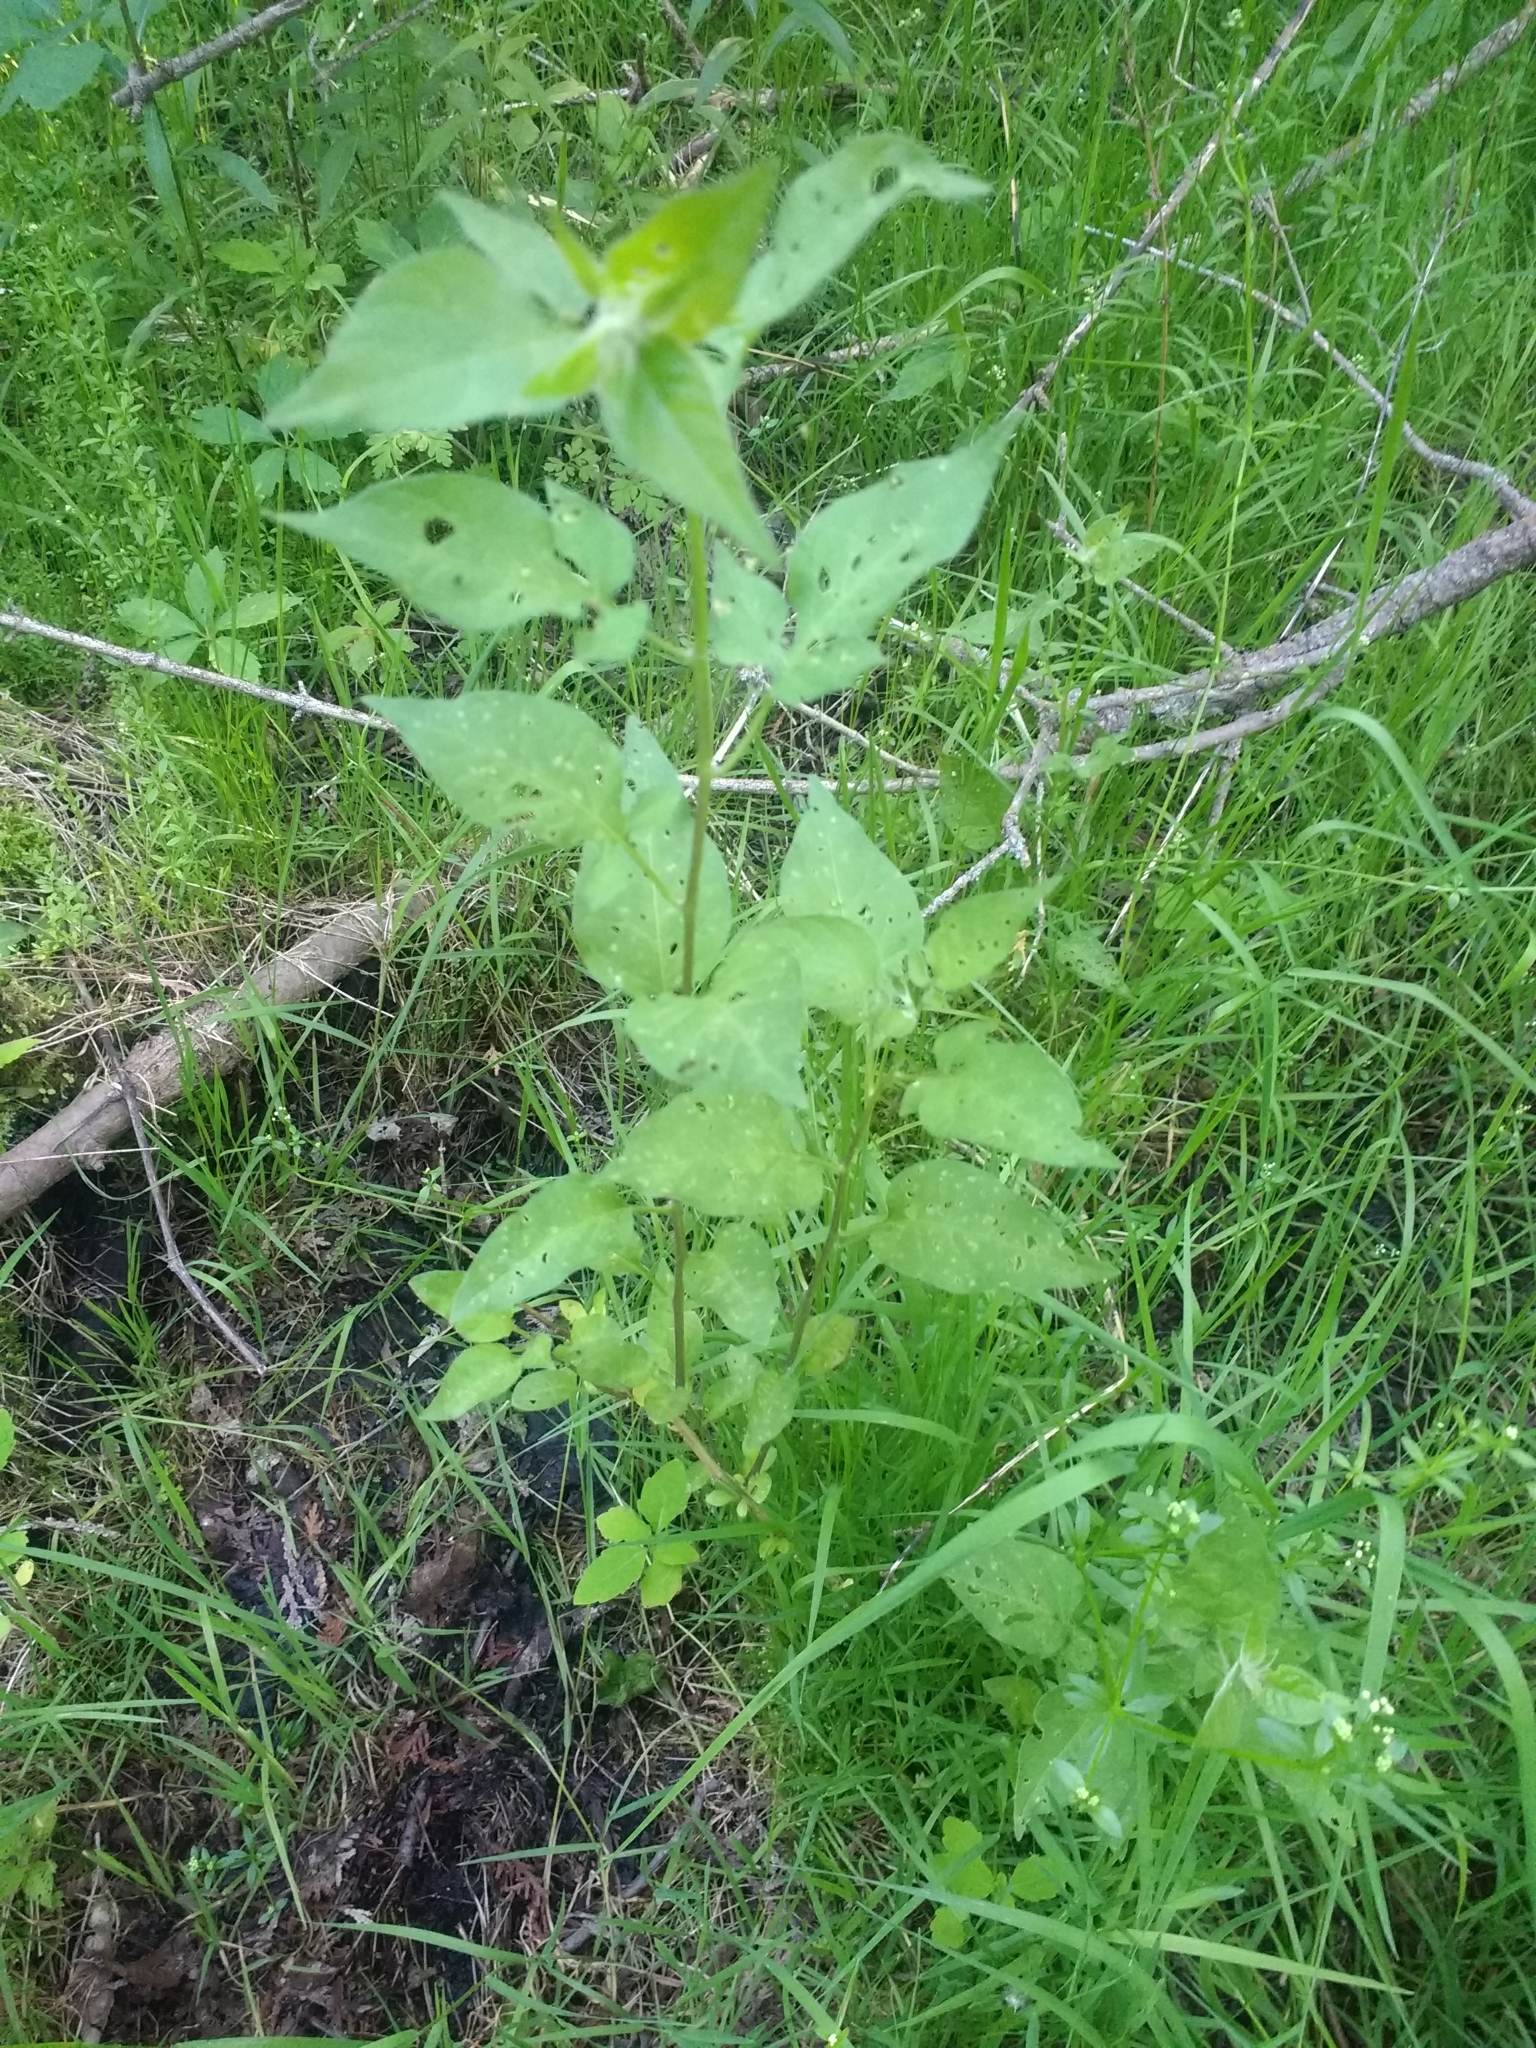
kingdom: Plantae
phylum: Tracheophyta
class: Magnoliopsida
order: Solanales
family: Solanaceae
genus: Solanum
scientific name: Solanum dulcamara
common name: Climbing nightshade
